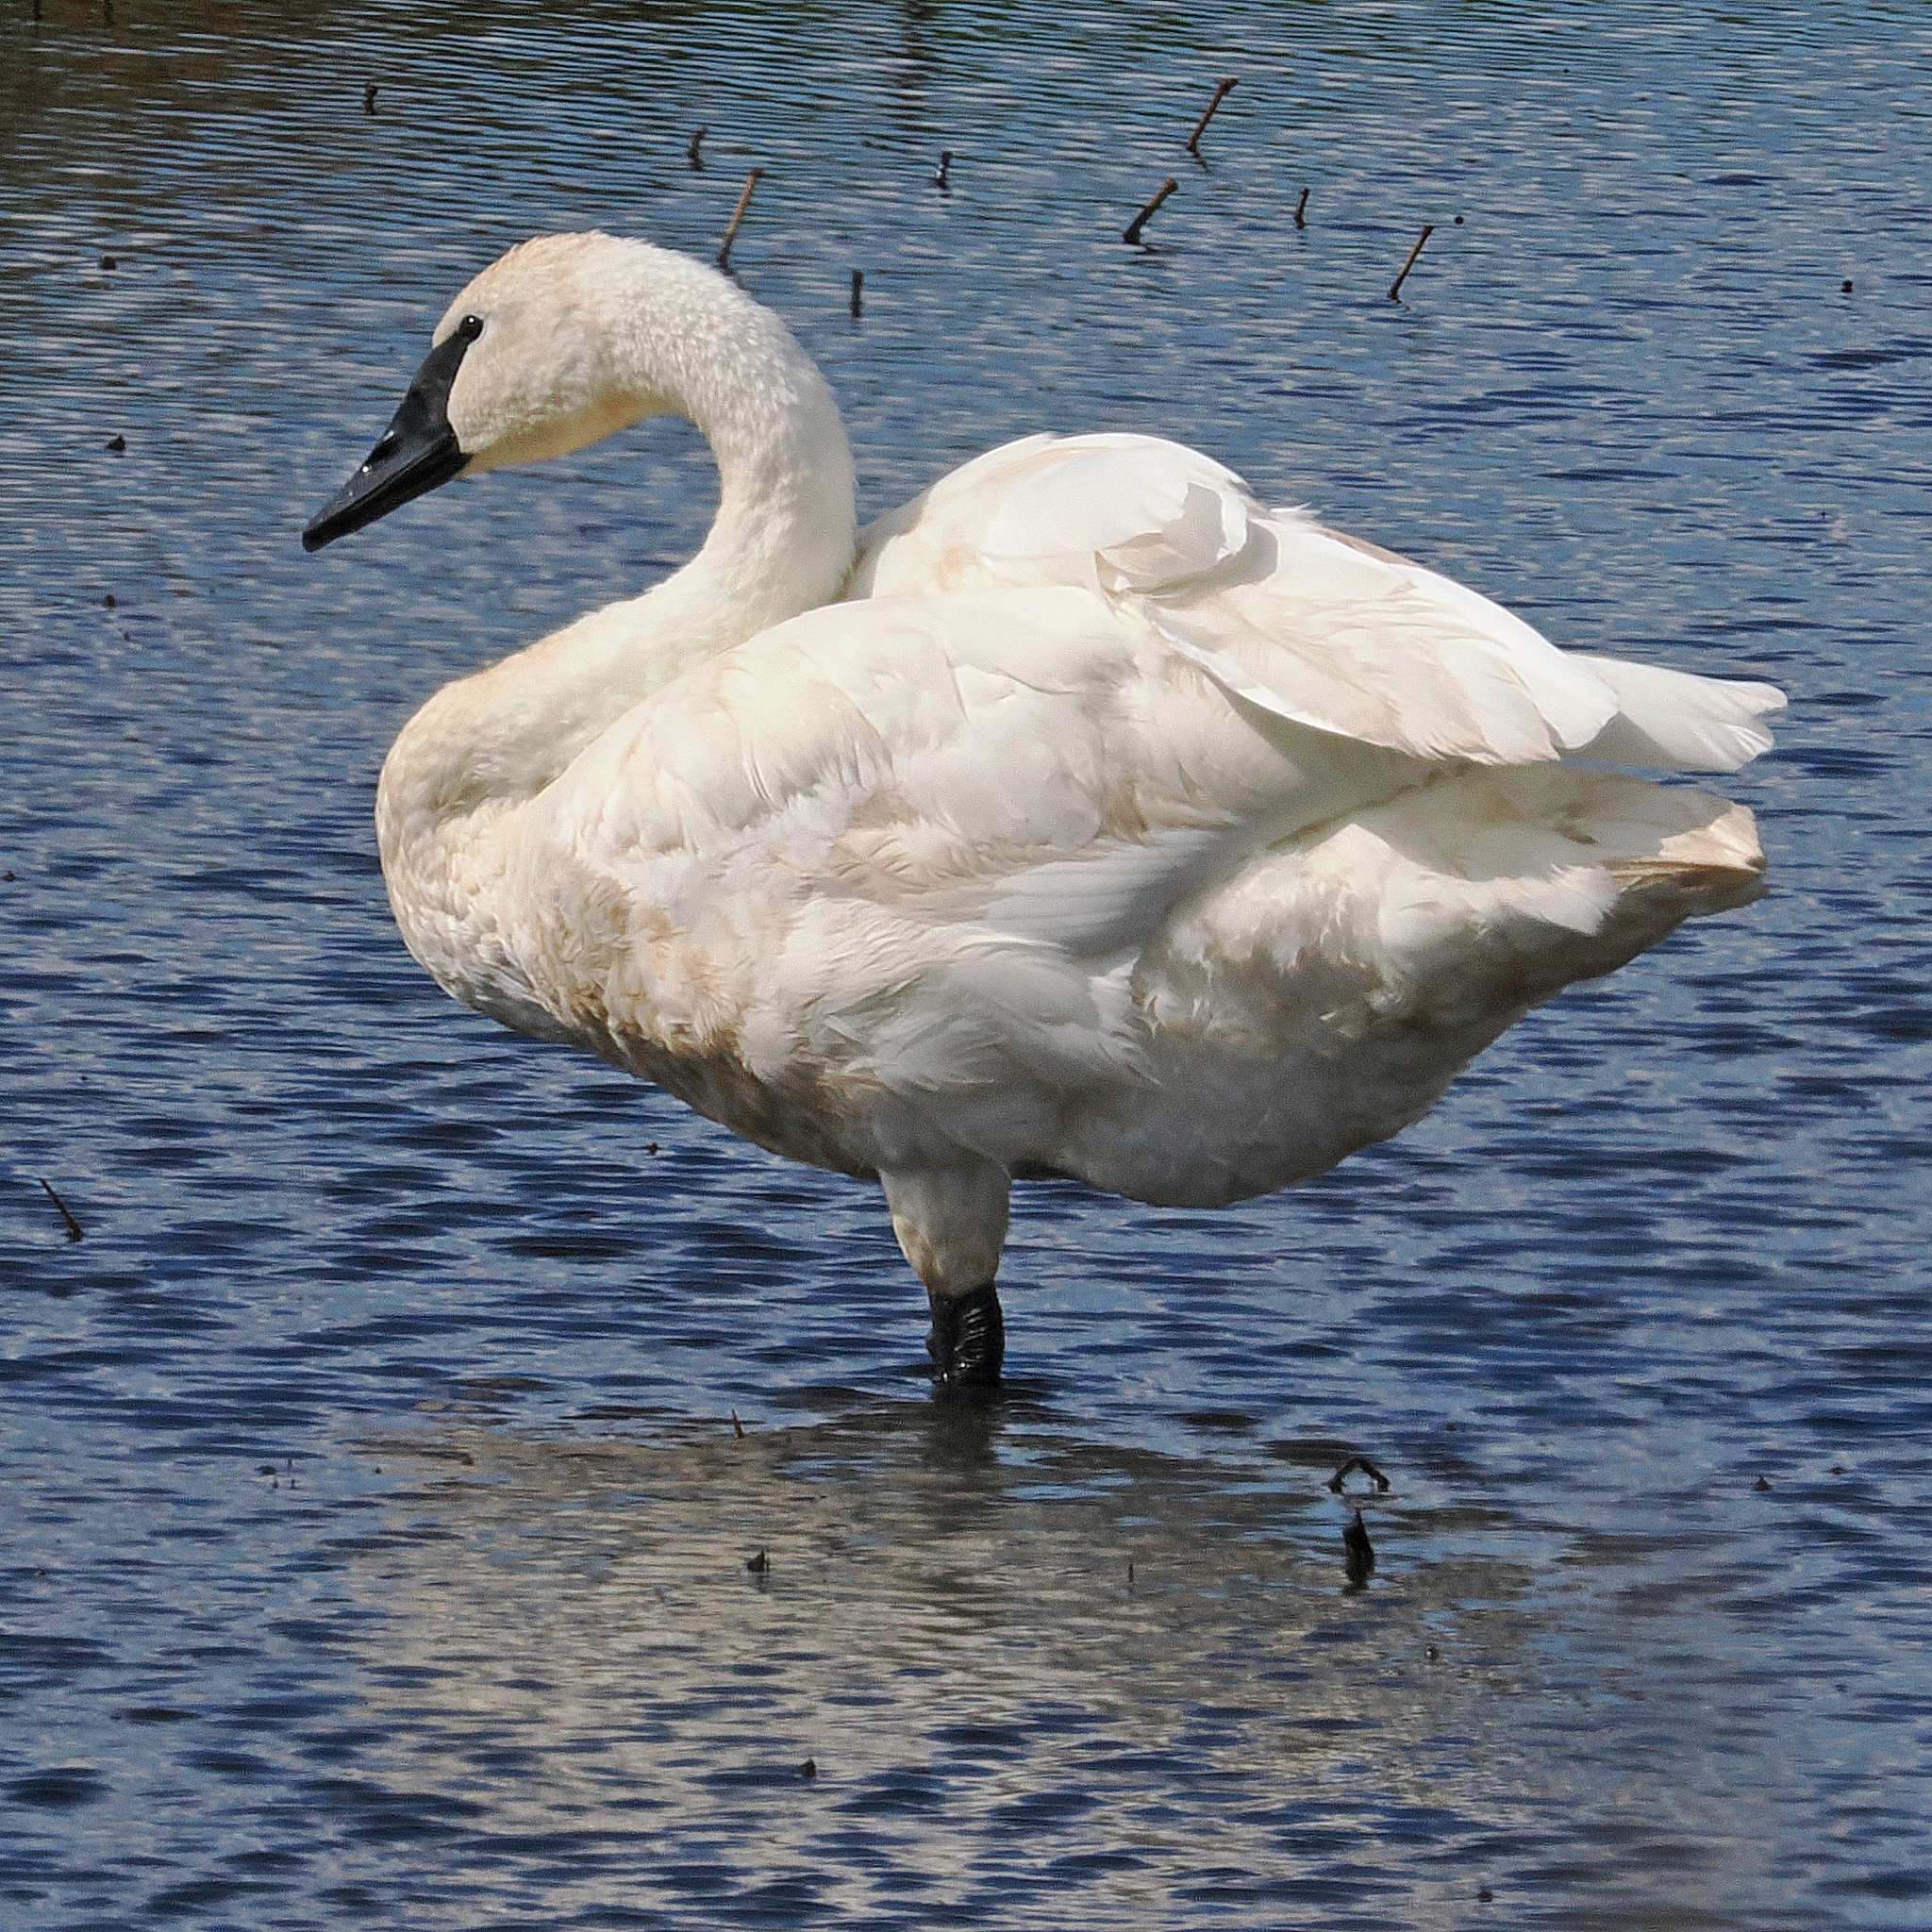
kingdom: Animalia
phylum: Chordata
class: Aves
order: Anseriformes
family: Anatidae
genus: Cygnus
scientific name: Cygnus buccinator
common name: Trumpeter swan
